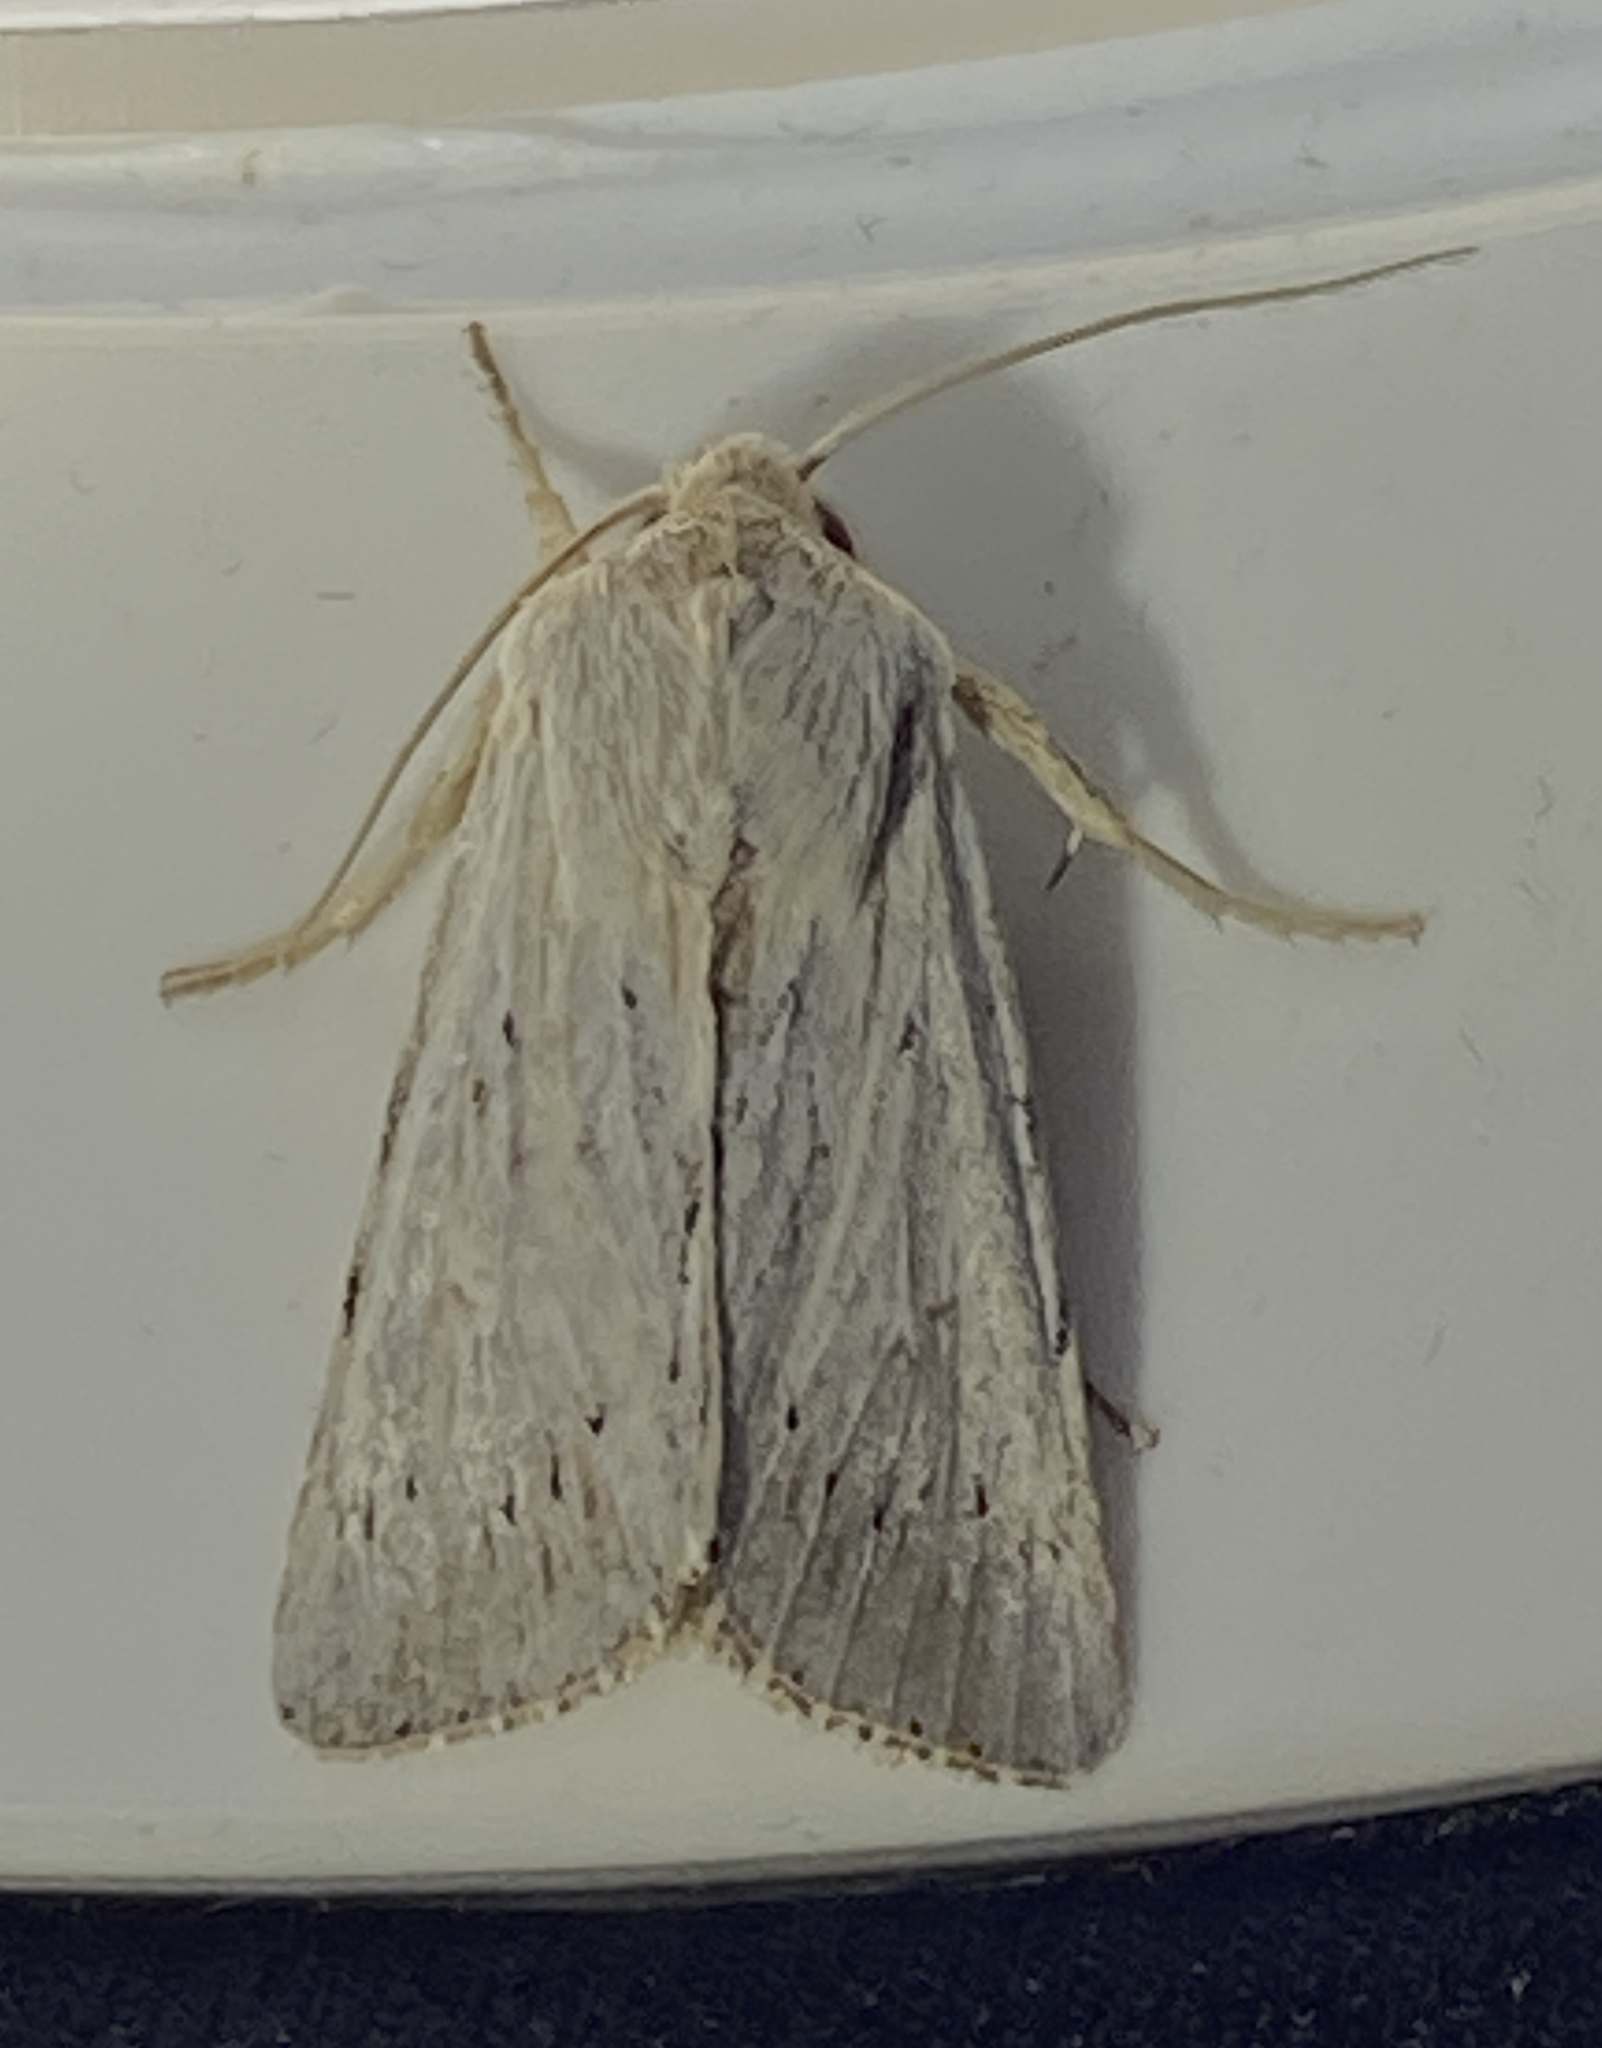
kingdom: Animalia
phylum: Arthropoda
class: Insecta
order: Lepidoptera
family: Noctuidae
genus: Sideridis
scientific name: Sideridis
